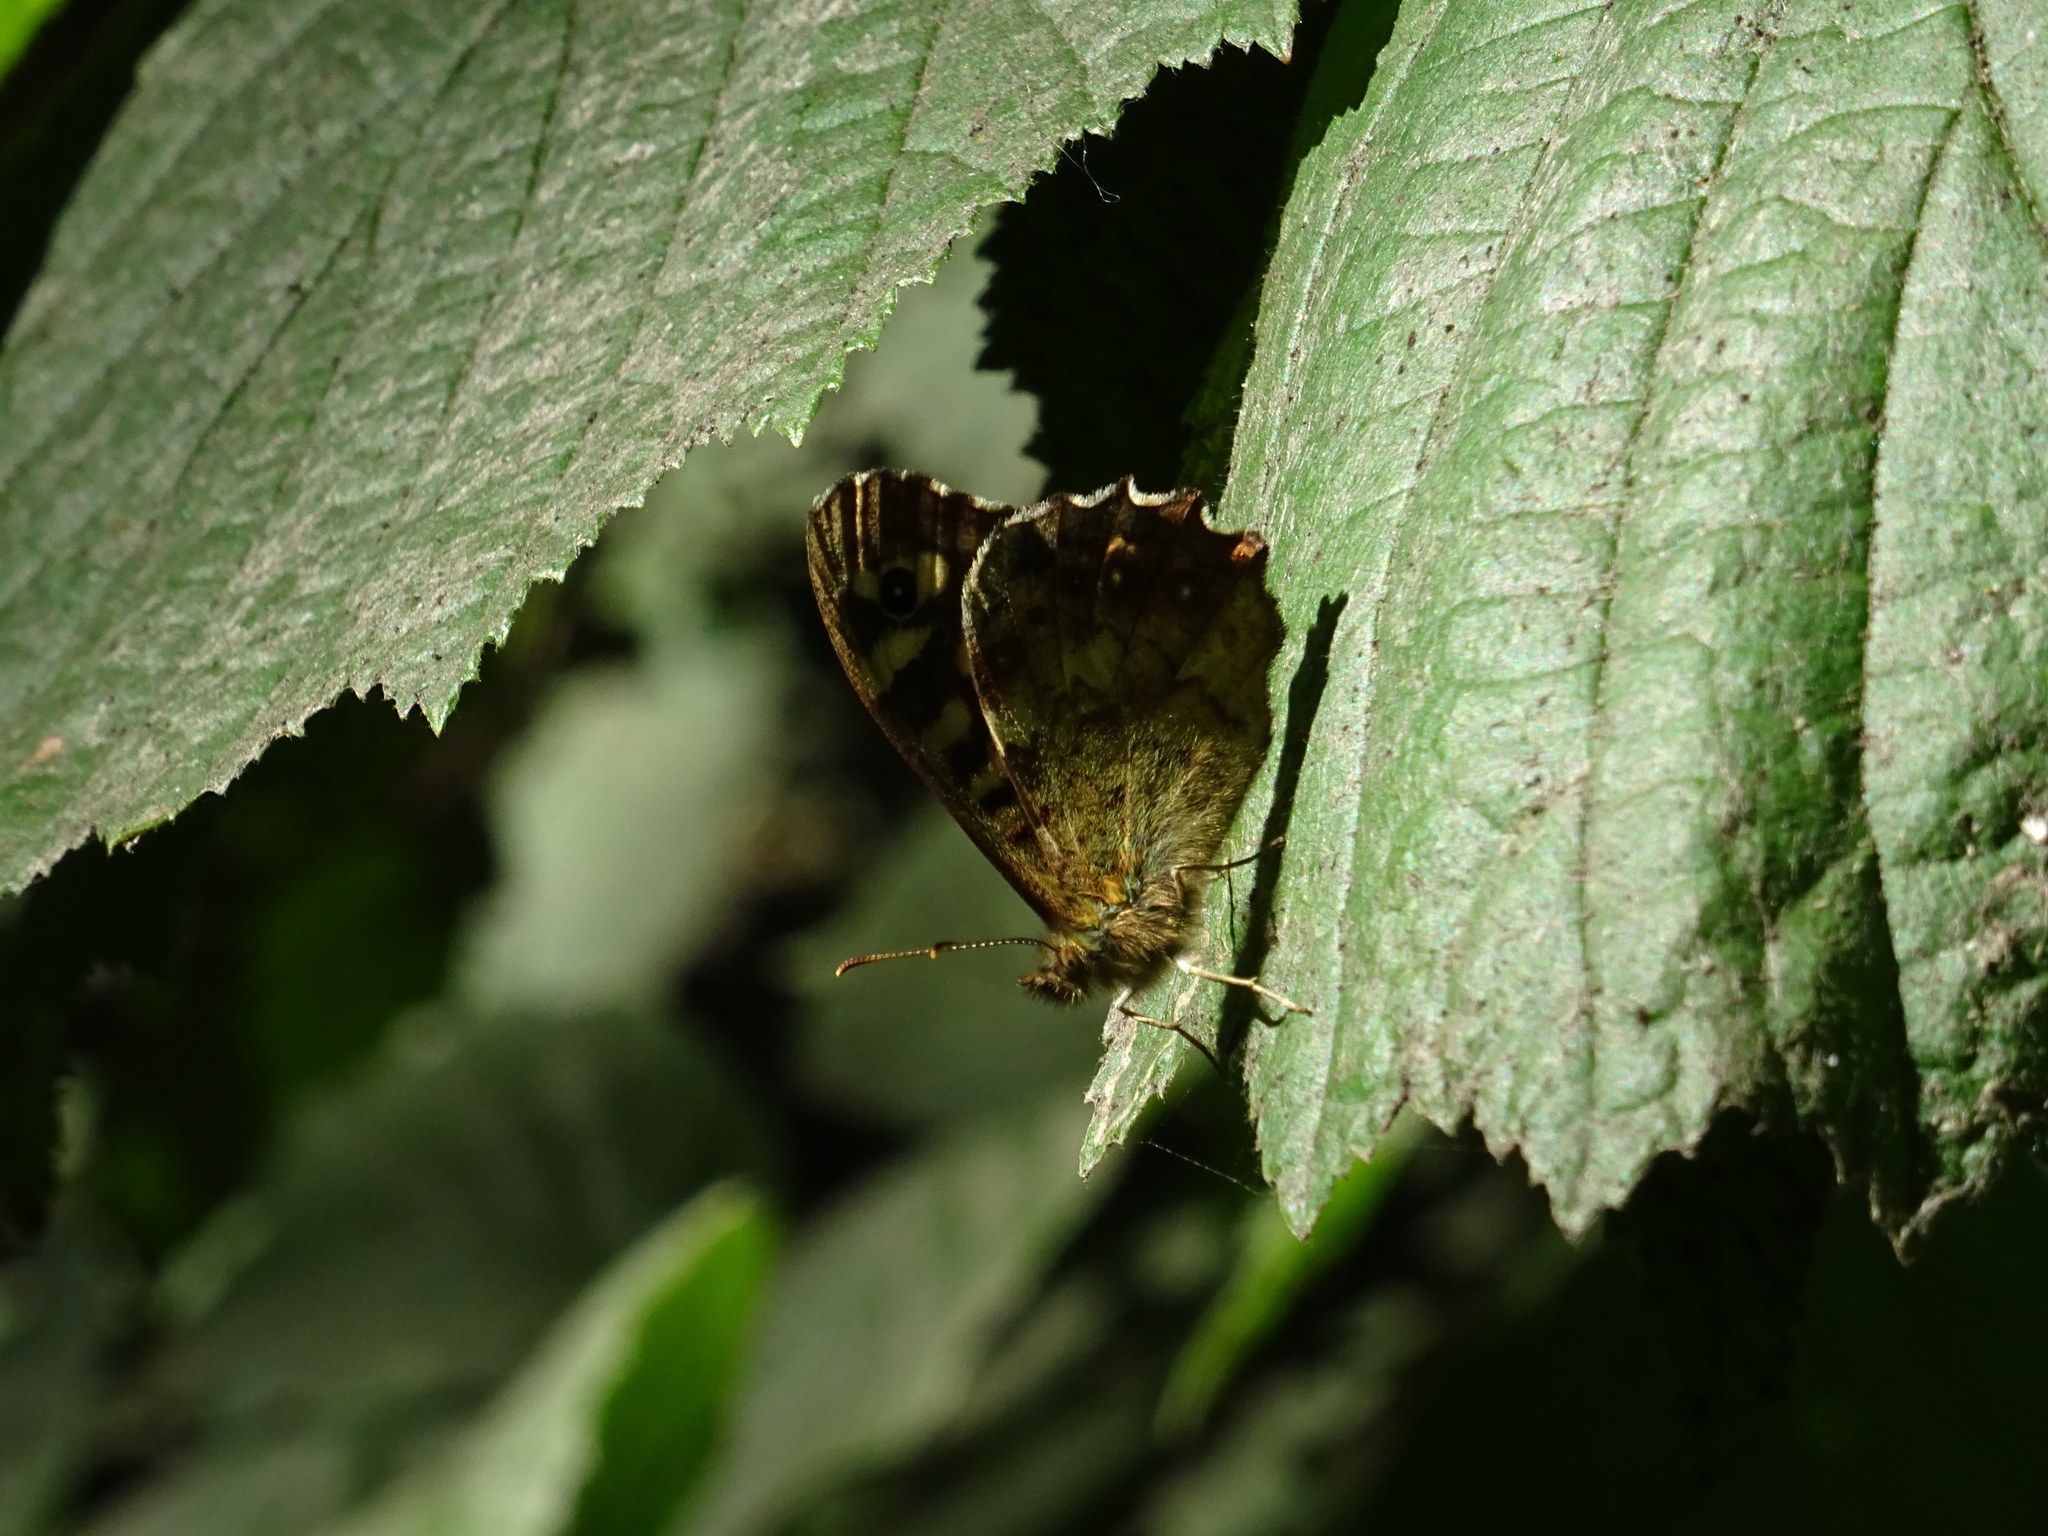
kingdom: Animalia
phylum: Arthropoda
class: Insecta
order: Lepidoptera
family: Nymphalidae
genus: Pararge
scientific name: Pararge aegeria
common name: Speckled wood
